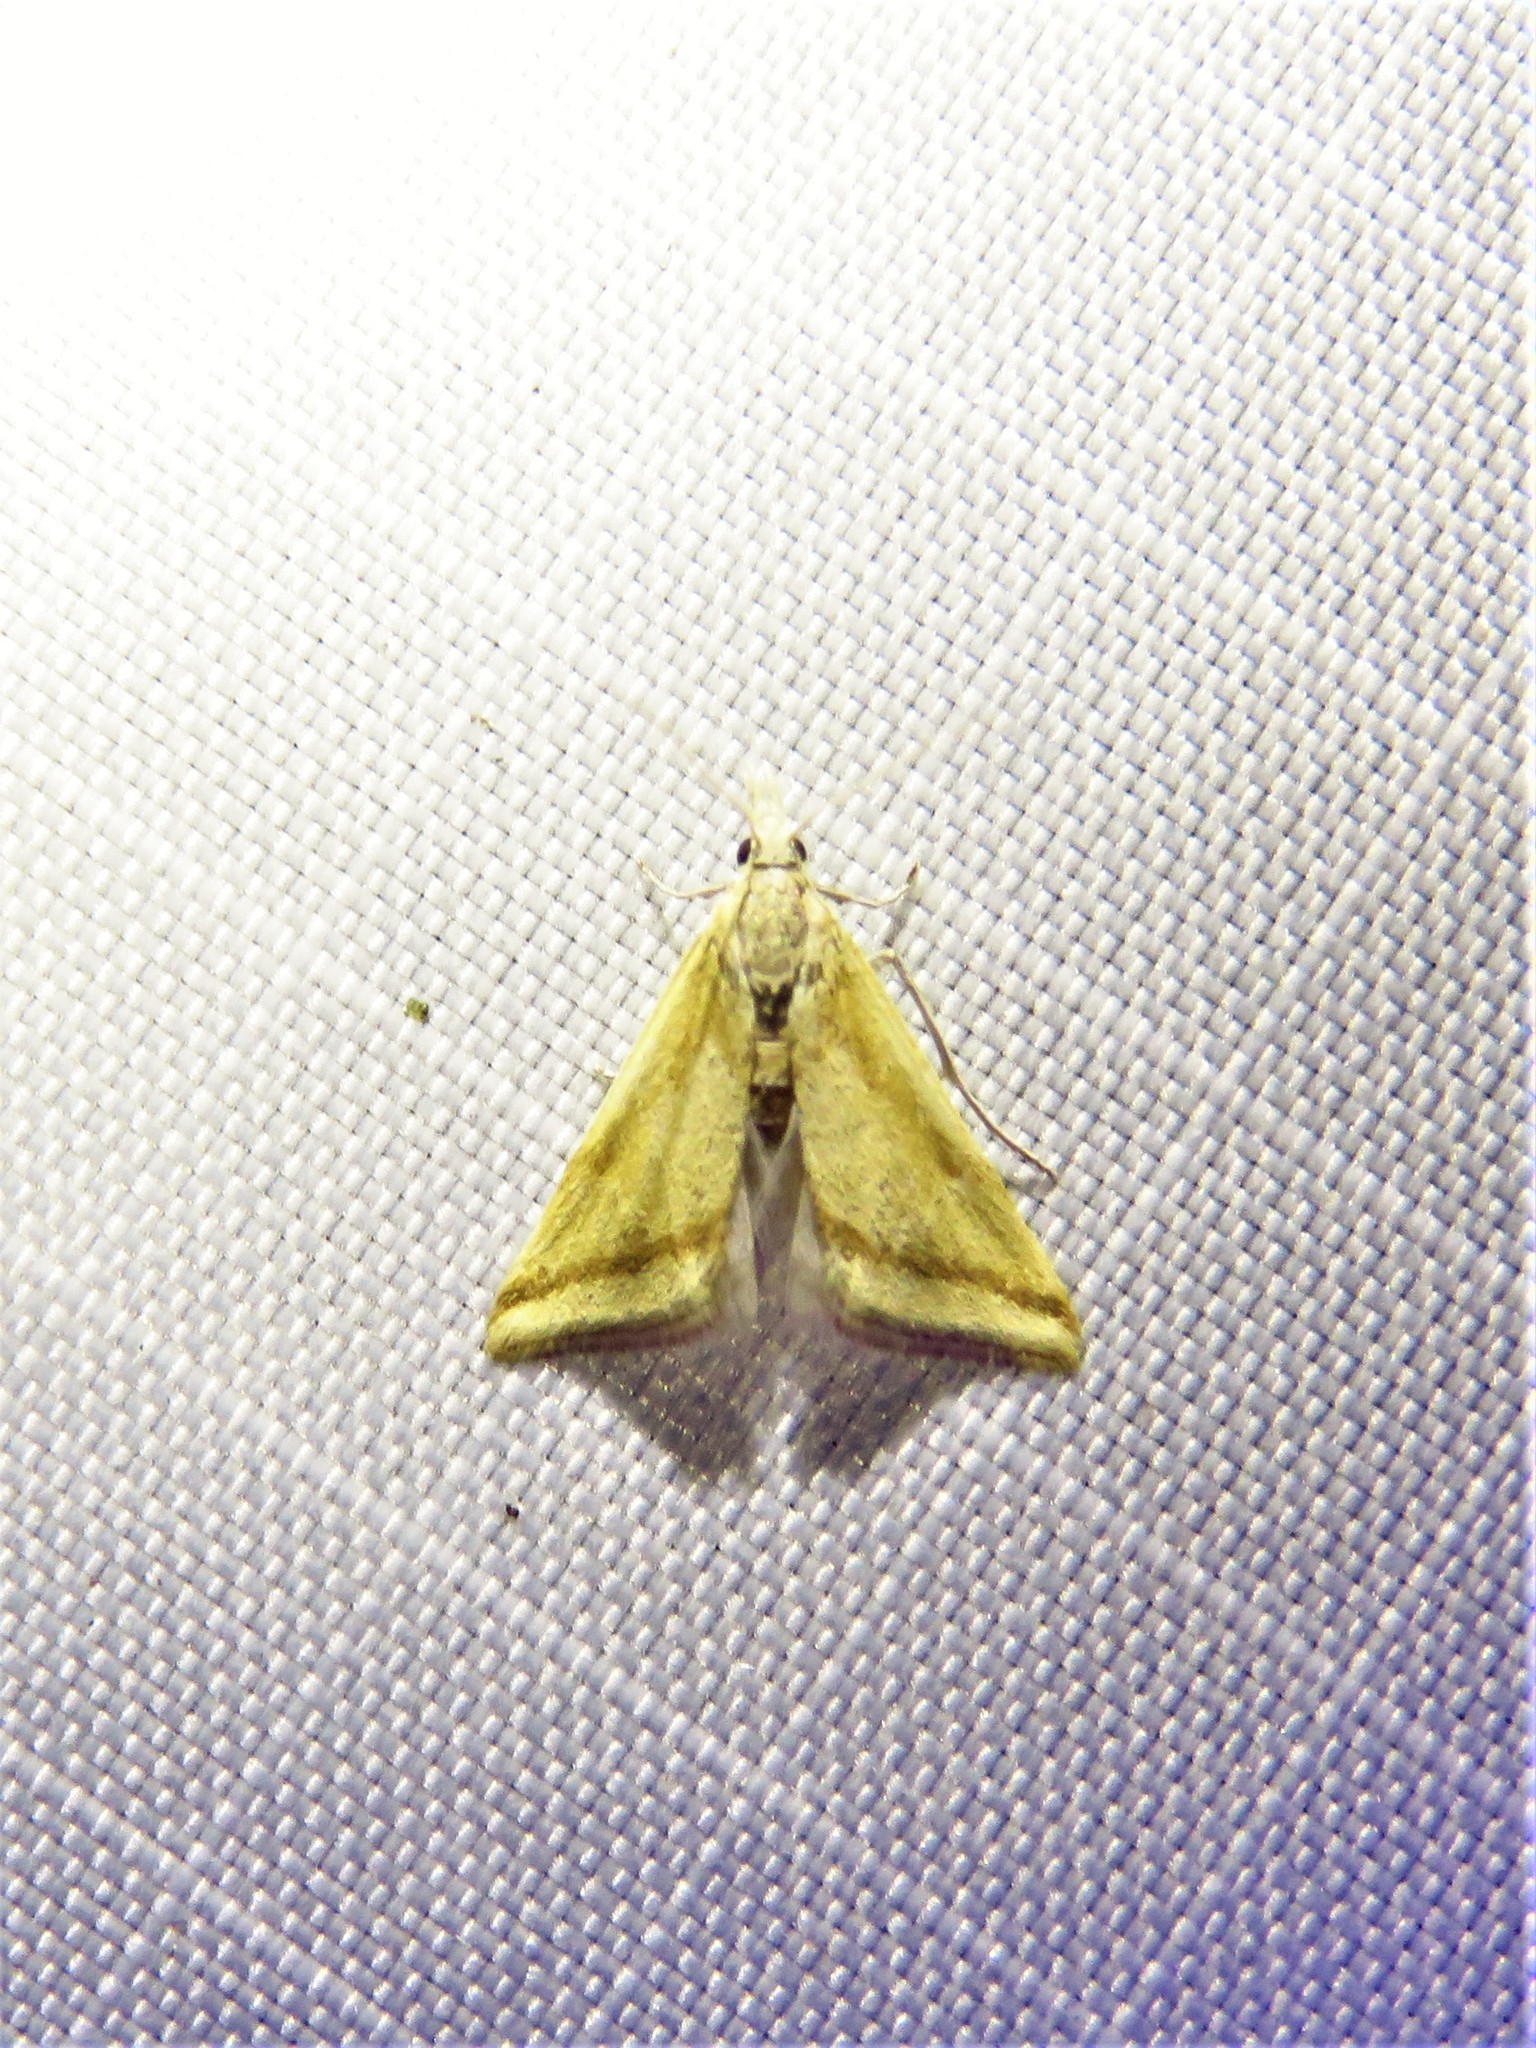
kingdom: Animalia
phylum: Arthropoda
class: Insecta
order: Lepidoptera
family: Crambidae
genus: Microtheoris
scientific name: Microtheoris vibicalis
